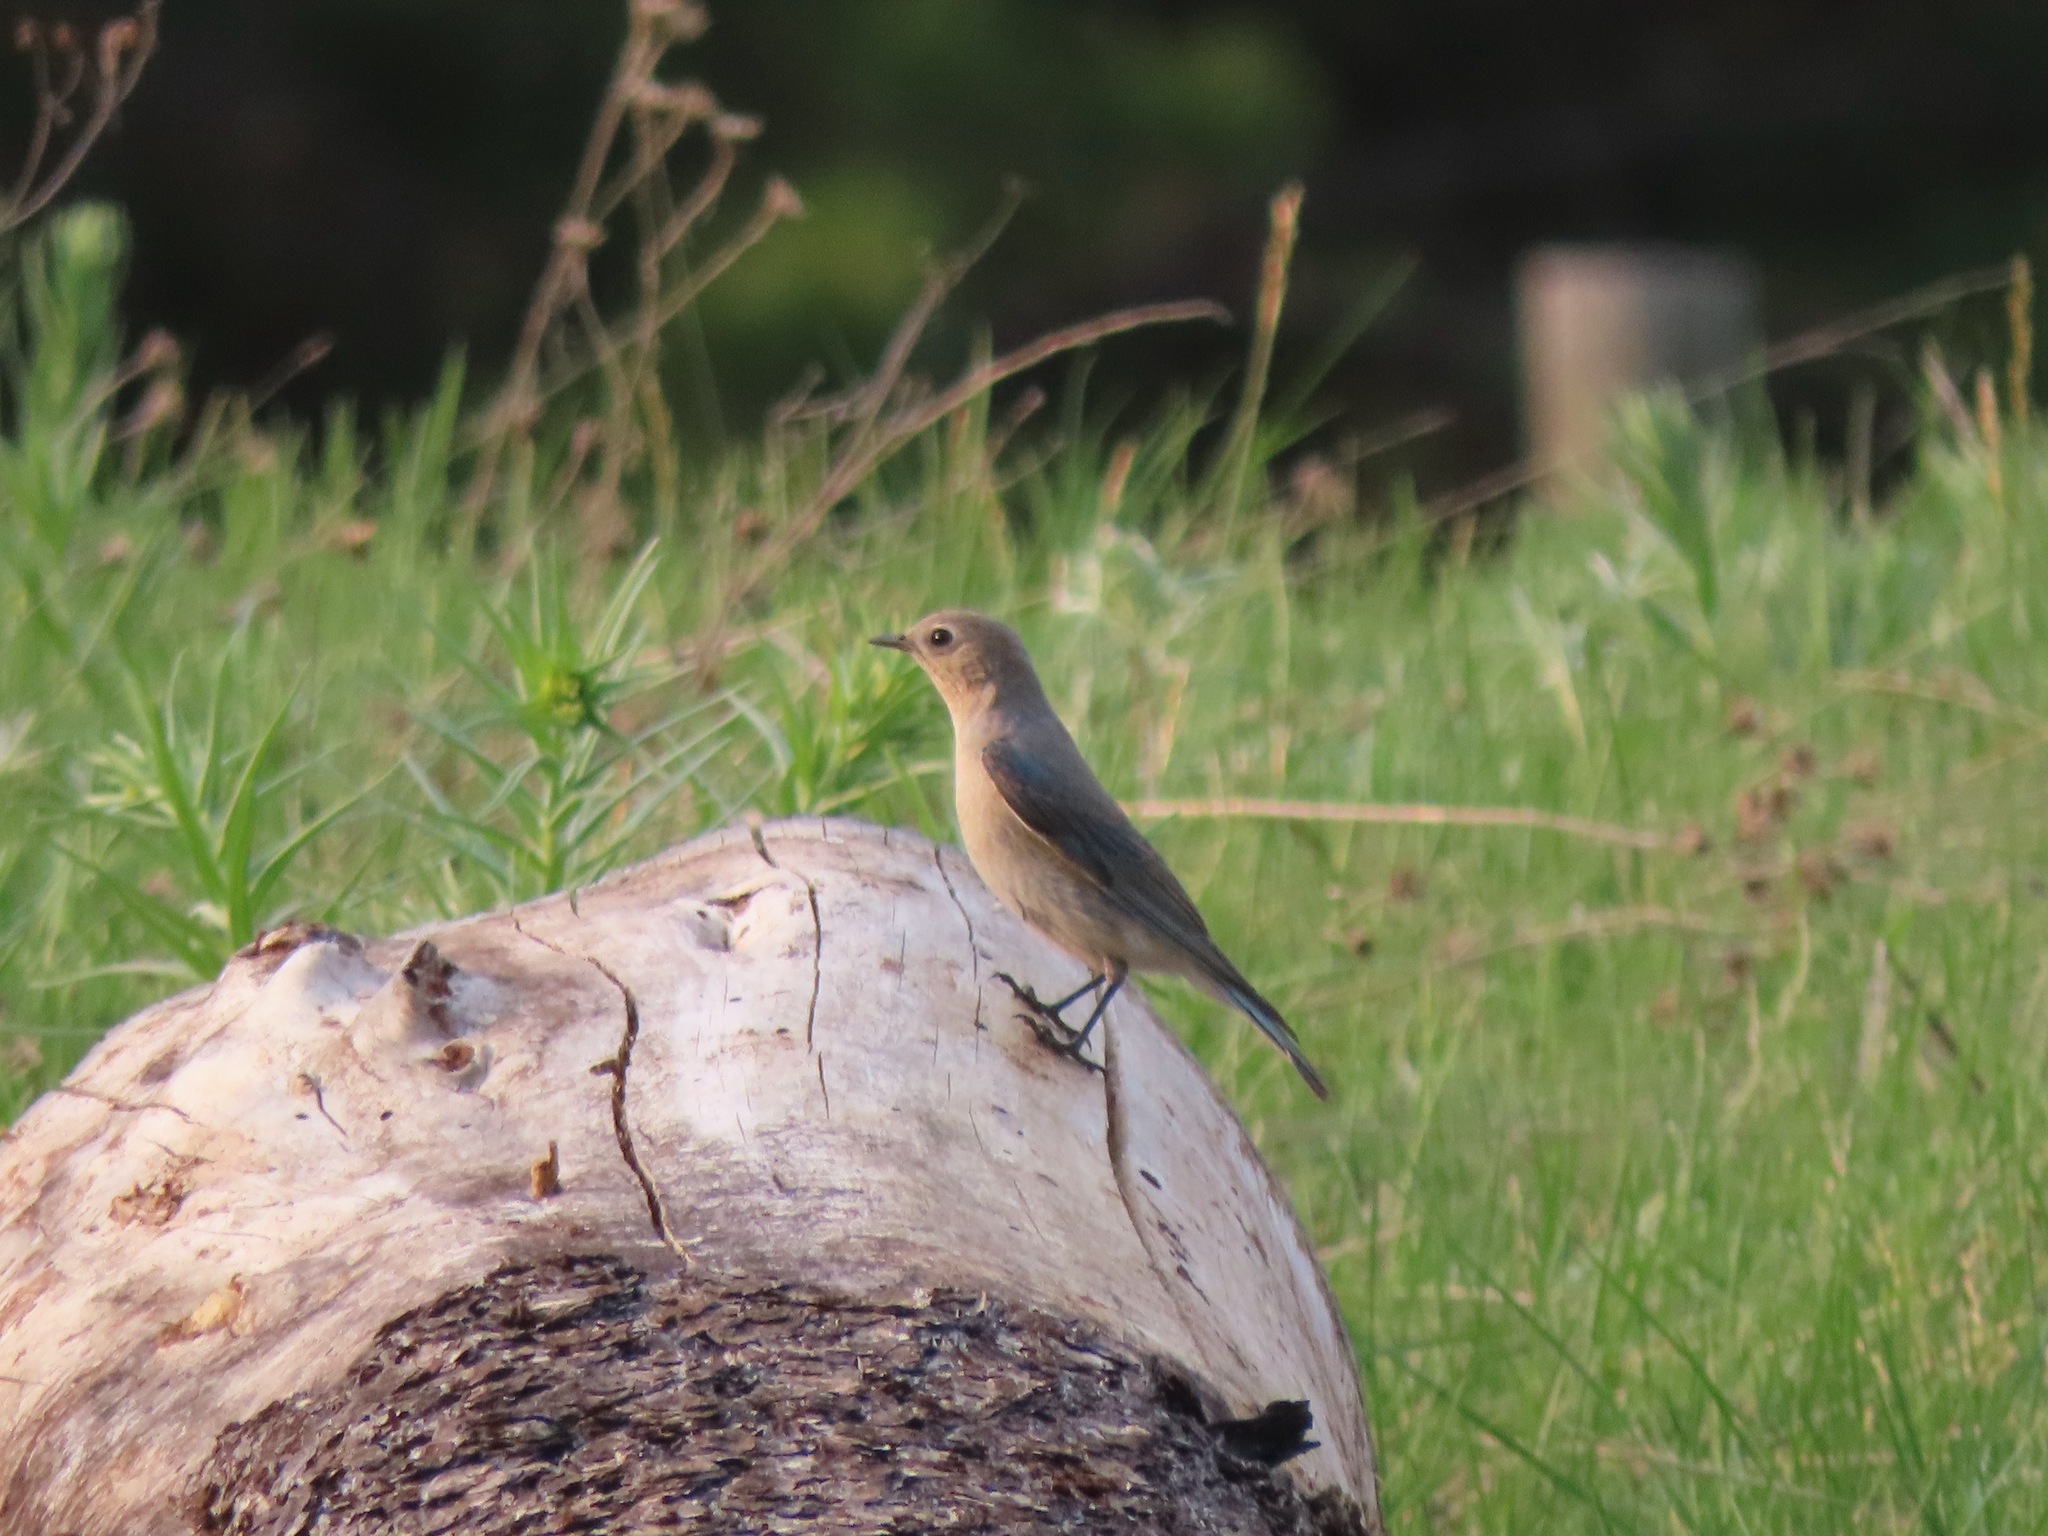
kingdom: Animalia
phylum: Chordata
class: Aves
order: Passeriformes
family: Turdidae
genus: Sialia
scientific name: Sialia currucoides
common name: Mountain bluebird
